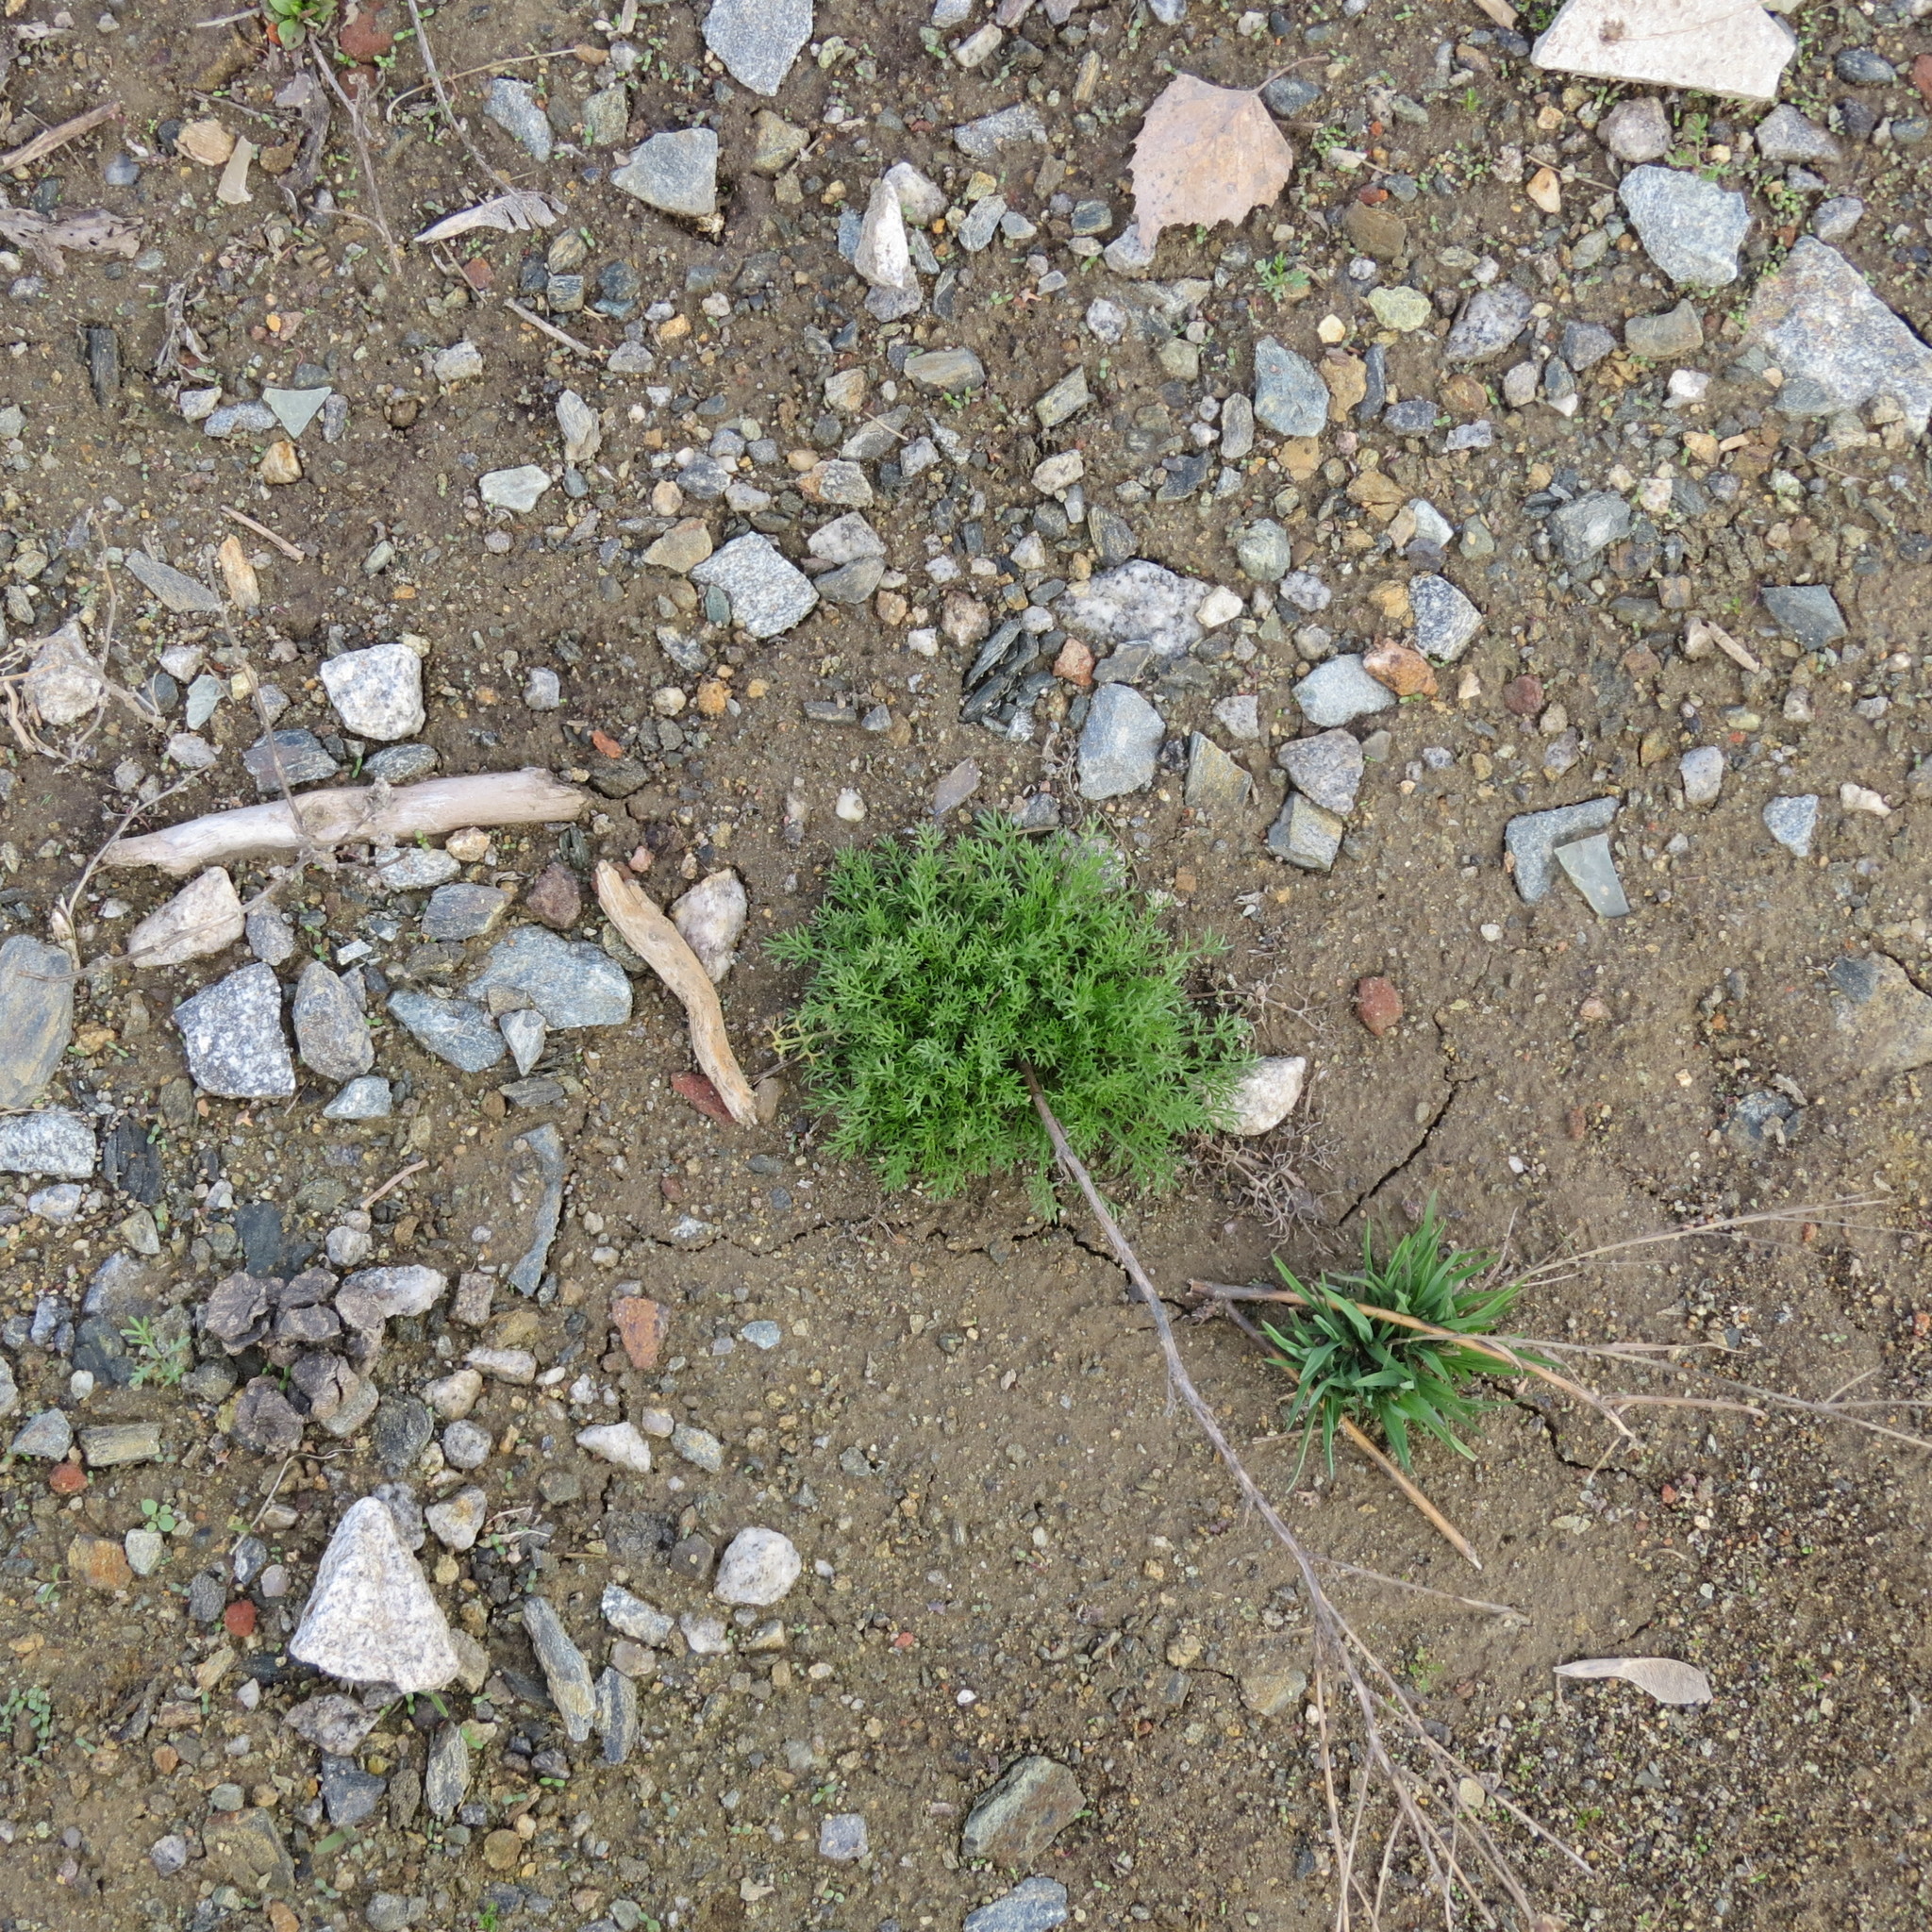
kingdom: Plantae
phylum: Tracheophyta
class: Magnoliopsida
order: Asterales
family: Asteraceae
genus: Tripleurospermum
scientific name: Tripleurospermum inodorum
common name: Scentless mayweed
